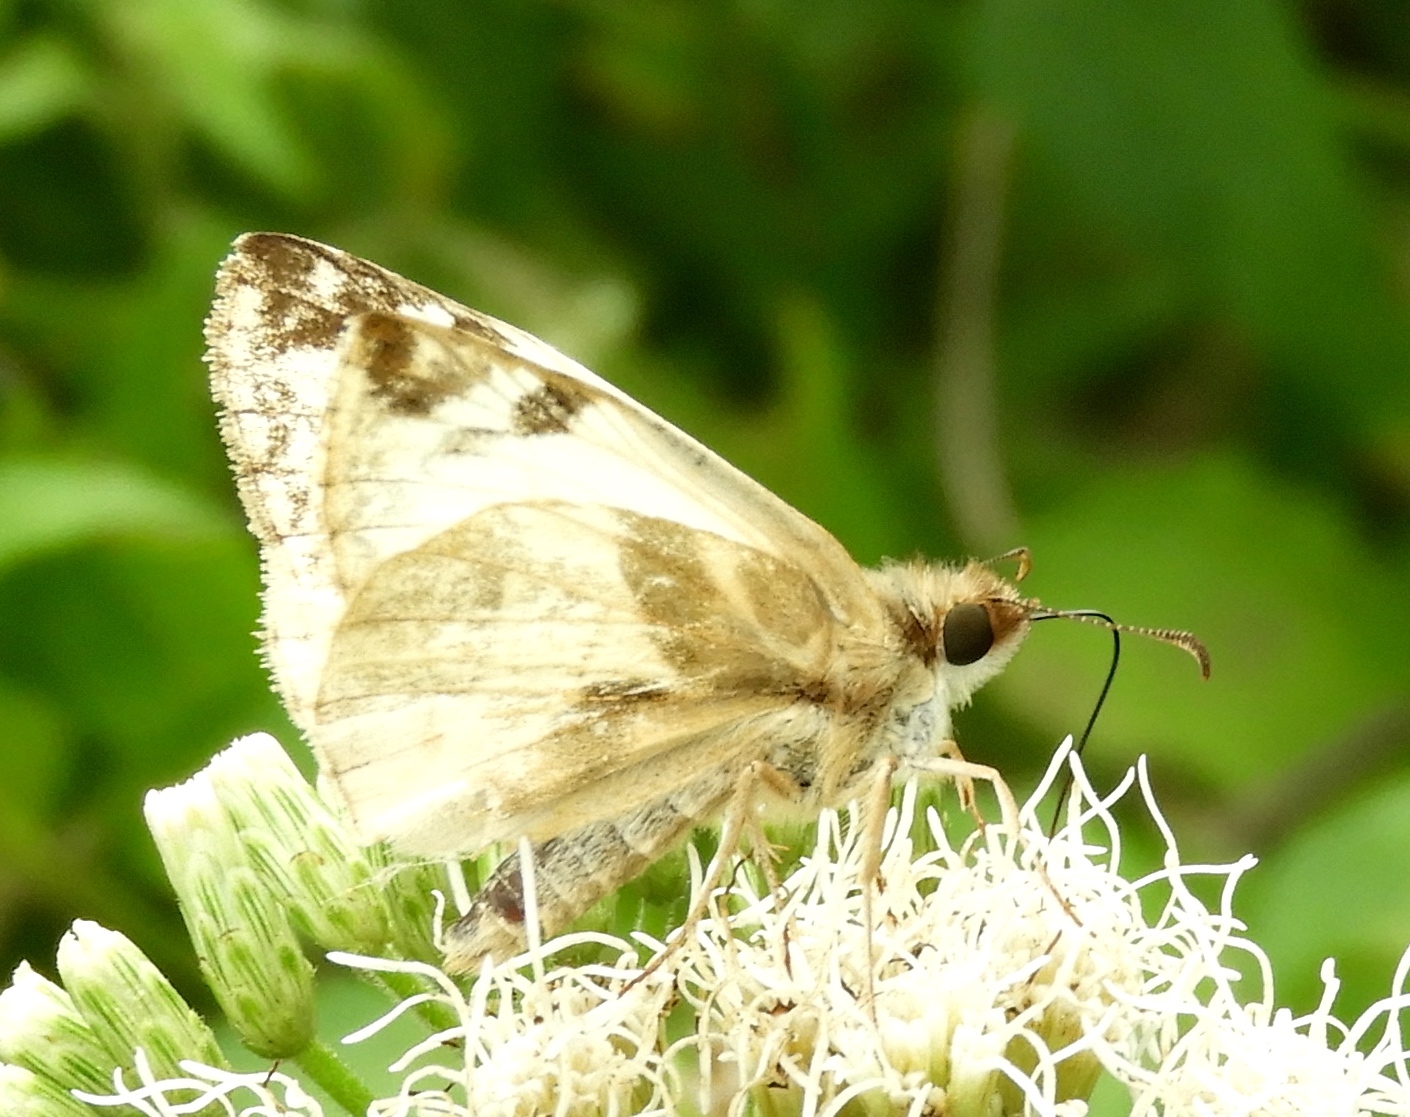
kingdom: Animalia
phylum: Arthropoda
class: Insecta
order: Lepidoptera
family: Hesperiidae
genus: Heliopetes
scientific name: Heliopetes laviana
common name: Laviana white-skipper
